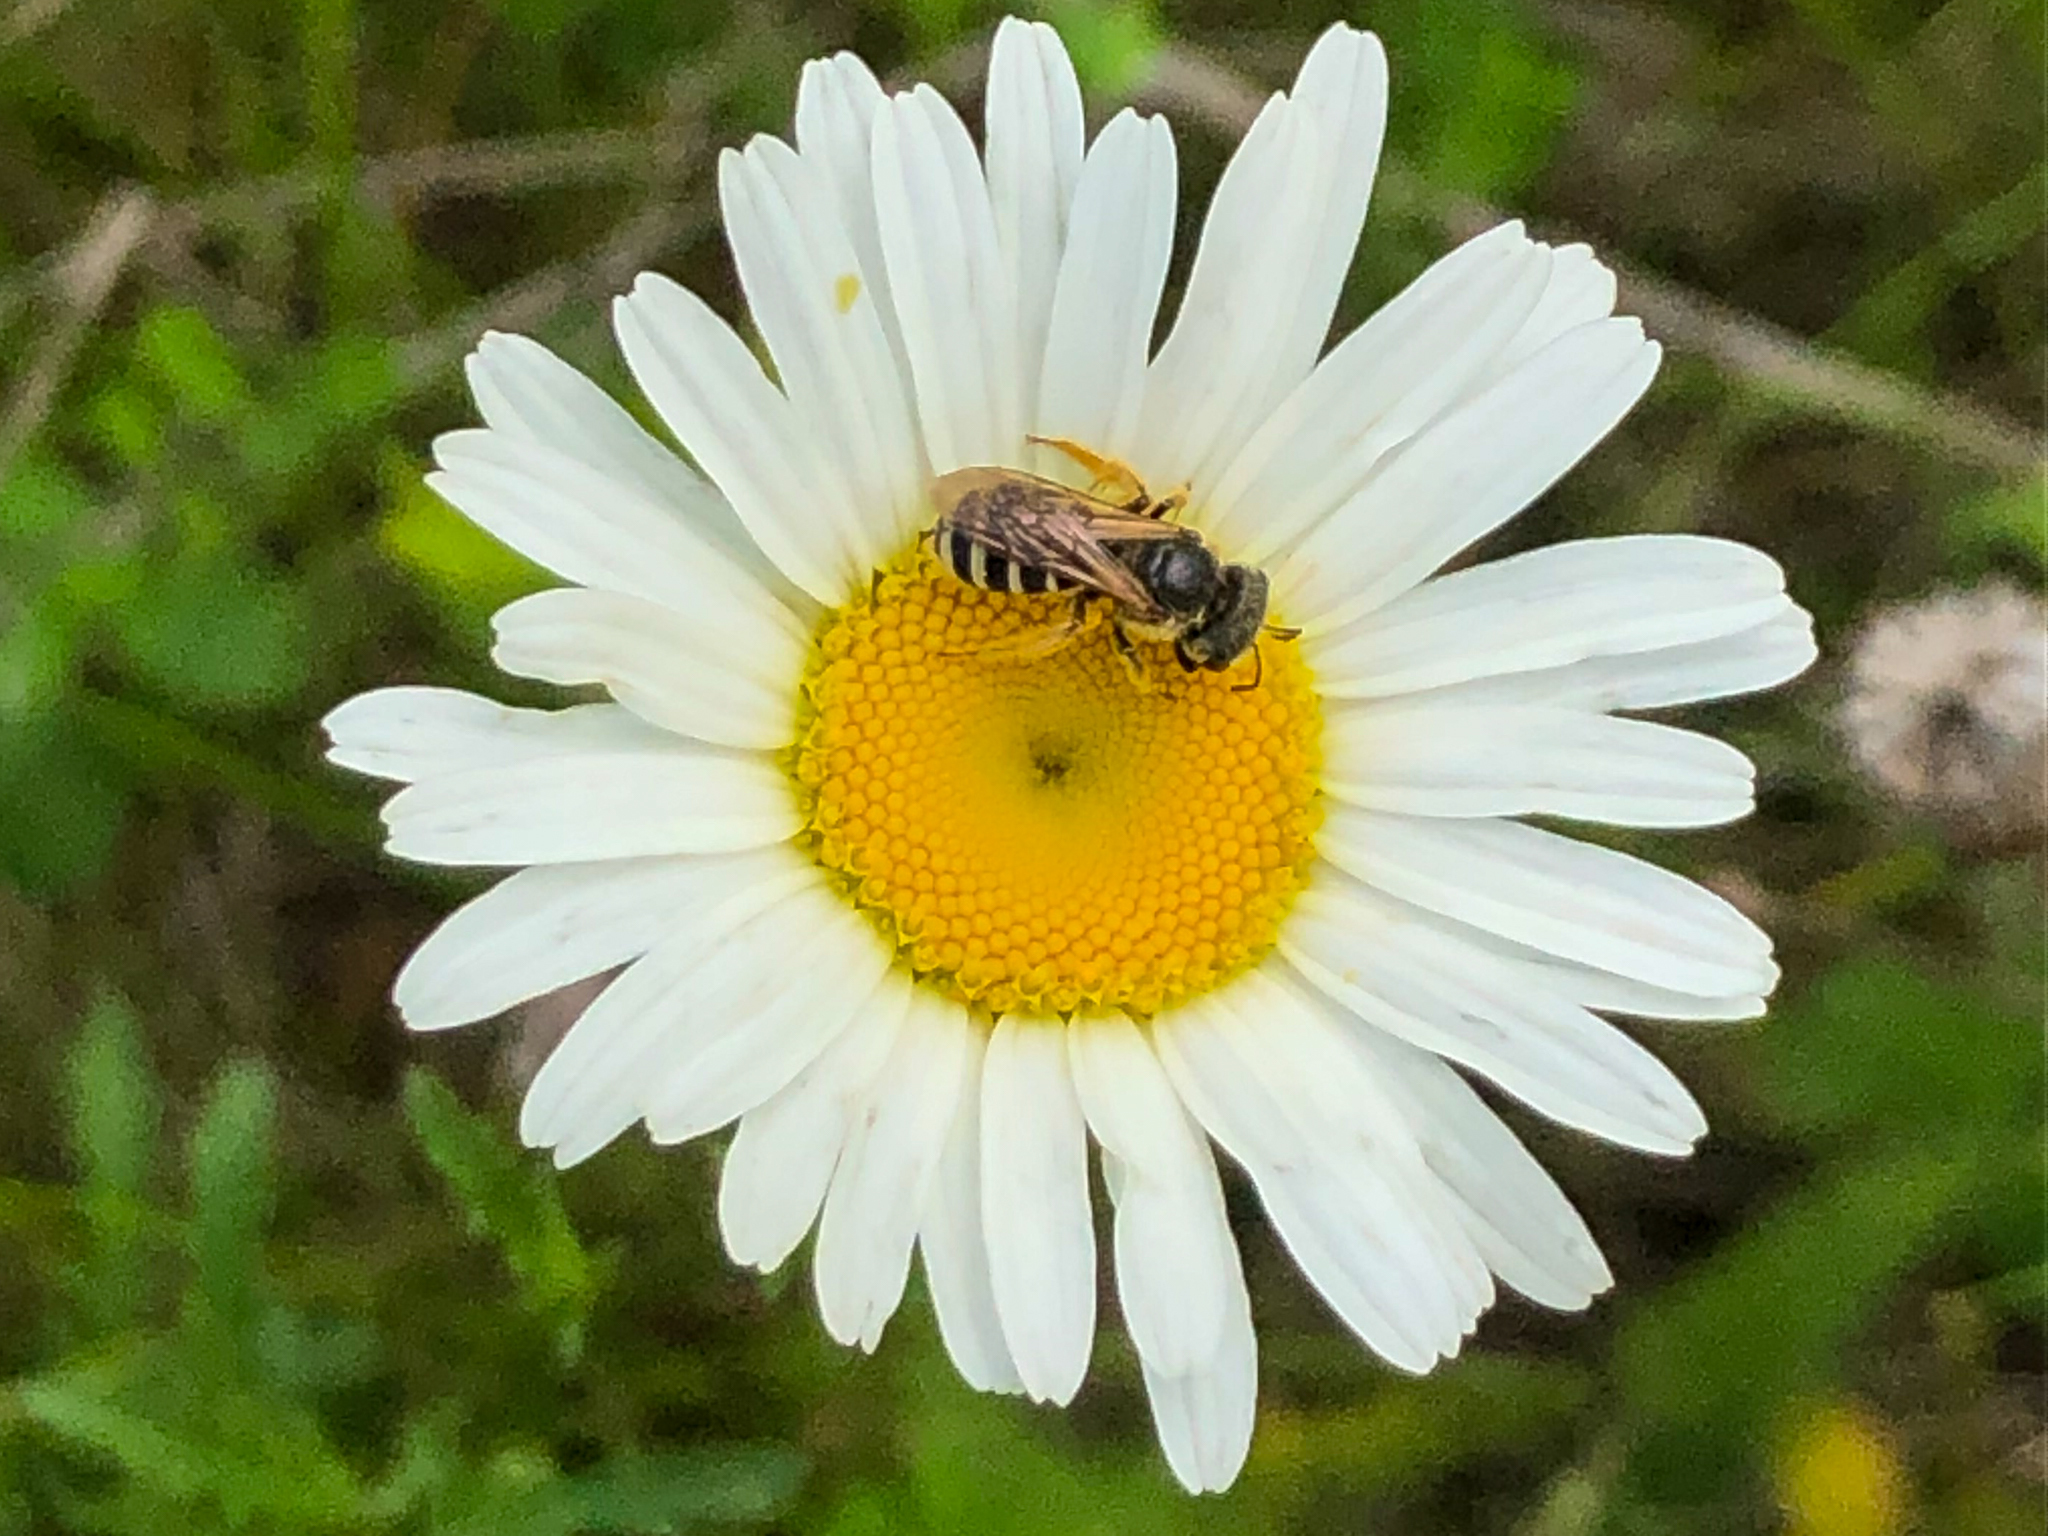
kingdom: Animalia
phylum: Arthropoda
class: Insecta
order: Hymenoptera
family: Halictidae
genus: Halictus
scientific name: Halictus ligatus
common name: Ligated furrow bee
